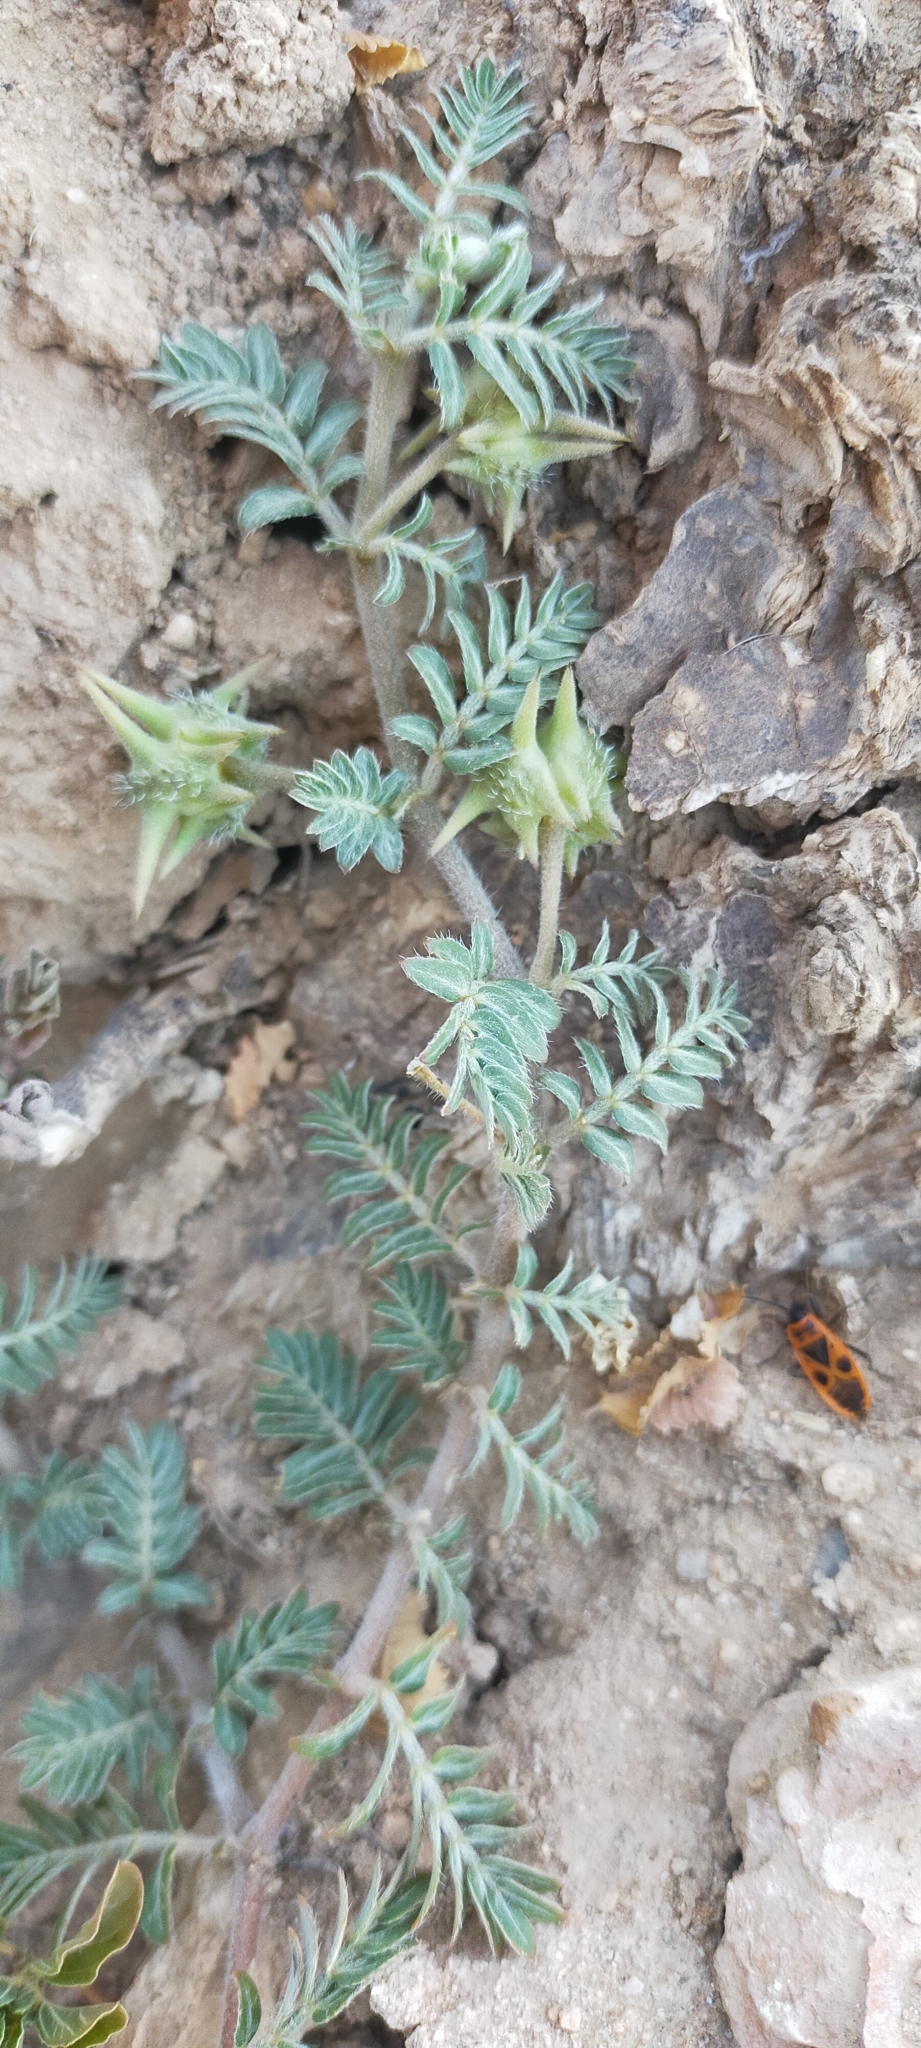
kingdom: Plantae
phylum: Tracheophyta
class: Magnoliopsida
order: Zygophyllales
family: Zygophyllaceae
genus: Tribulus
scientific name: Tribulus terrestris
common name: Puncturevine
